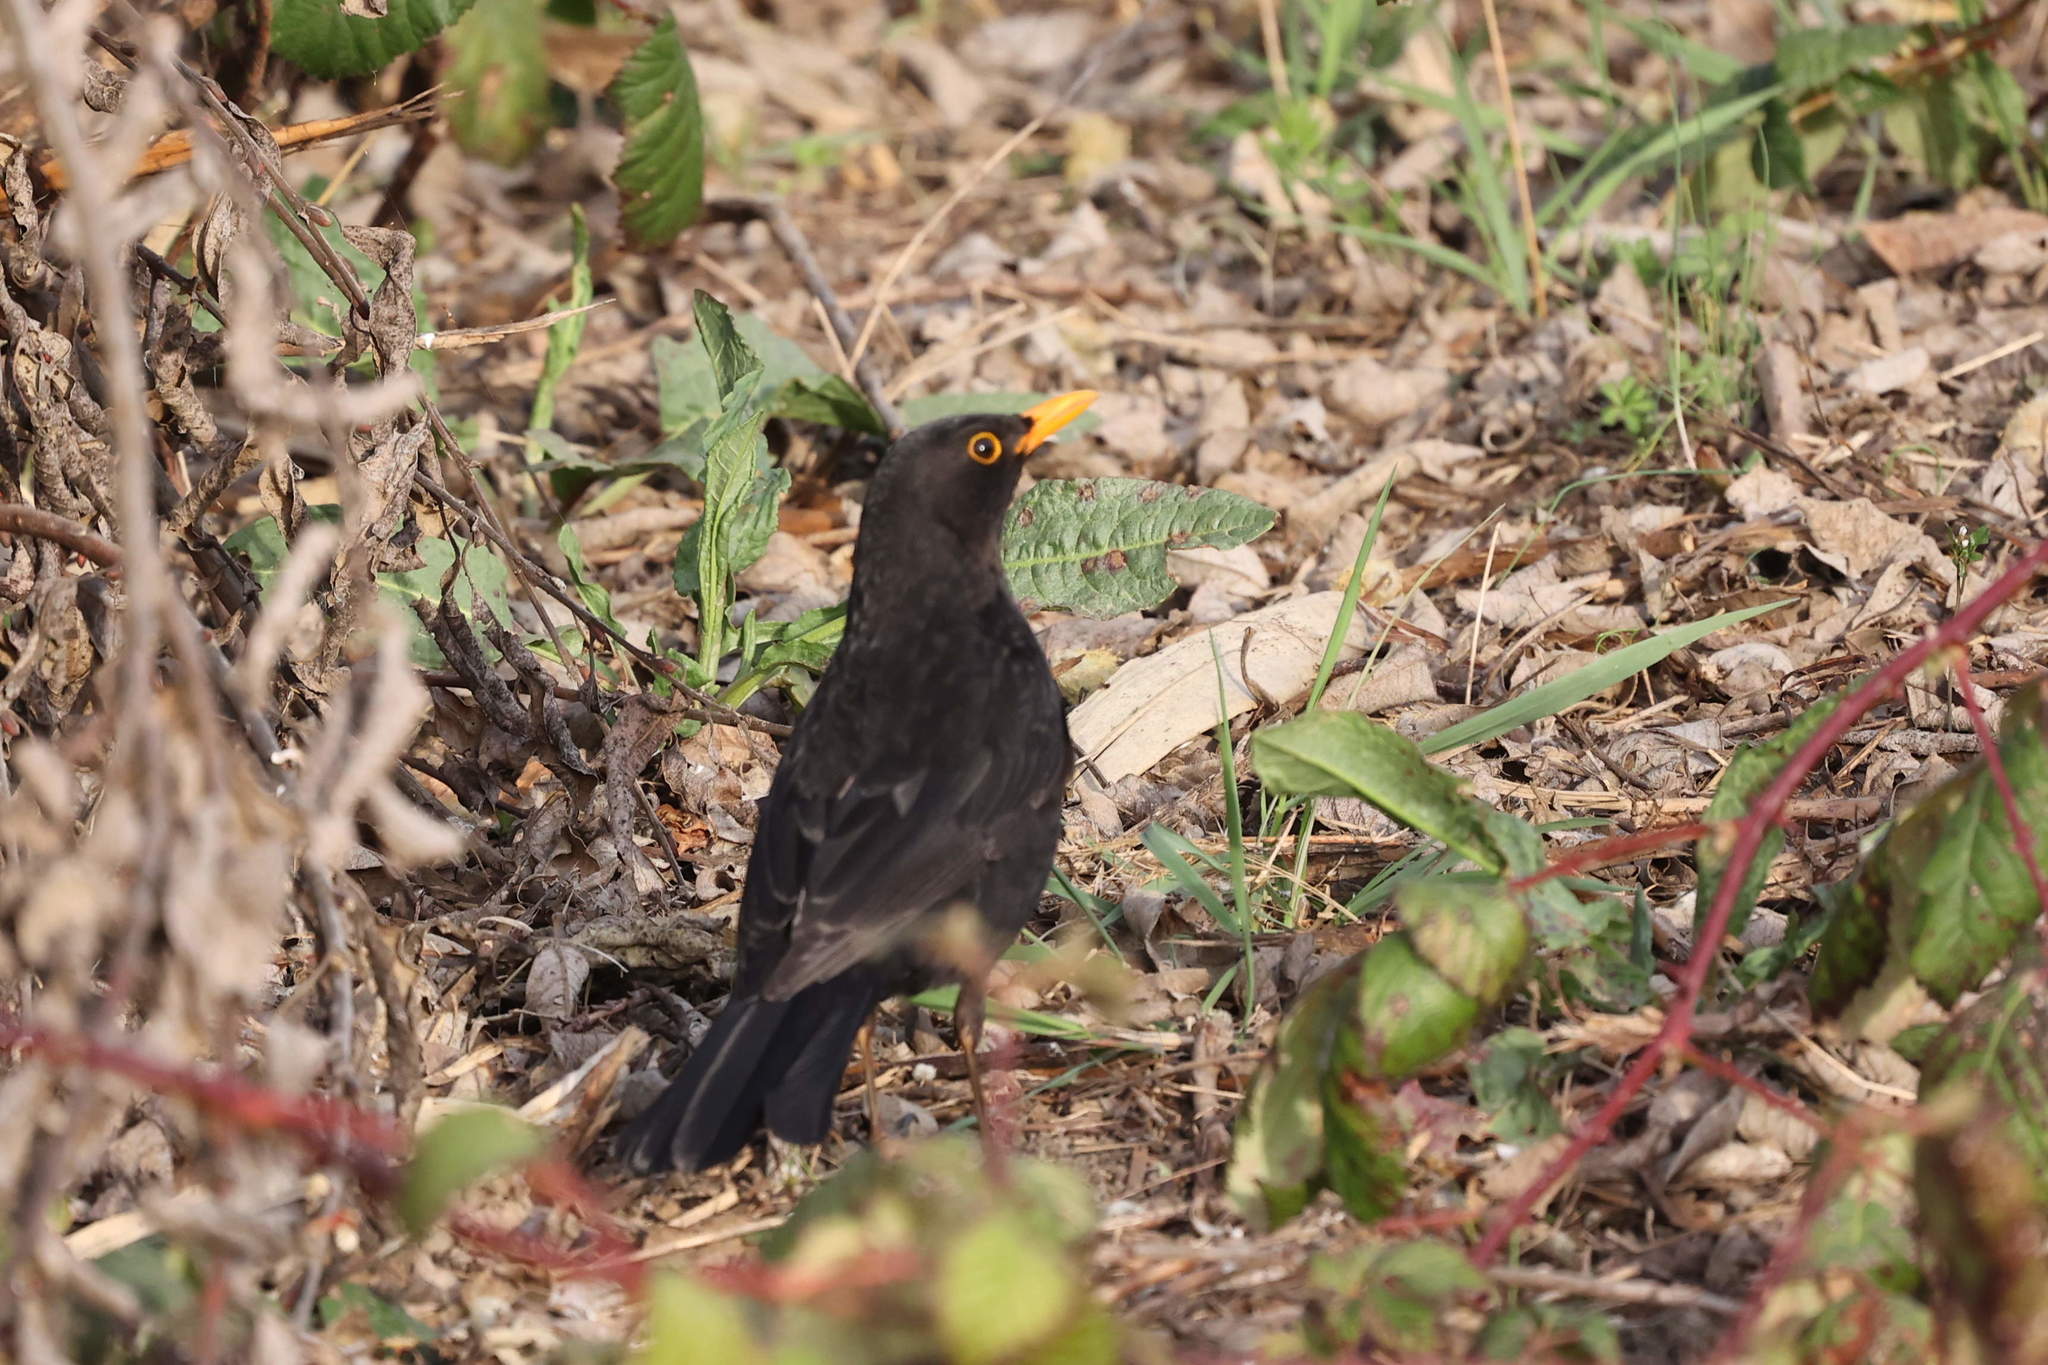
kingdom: Animalia
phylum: Chordata
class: Aves
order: Passeriformes
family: Turdidae
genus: Turdus
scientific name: Turdus merula
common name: Common blackbird
